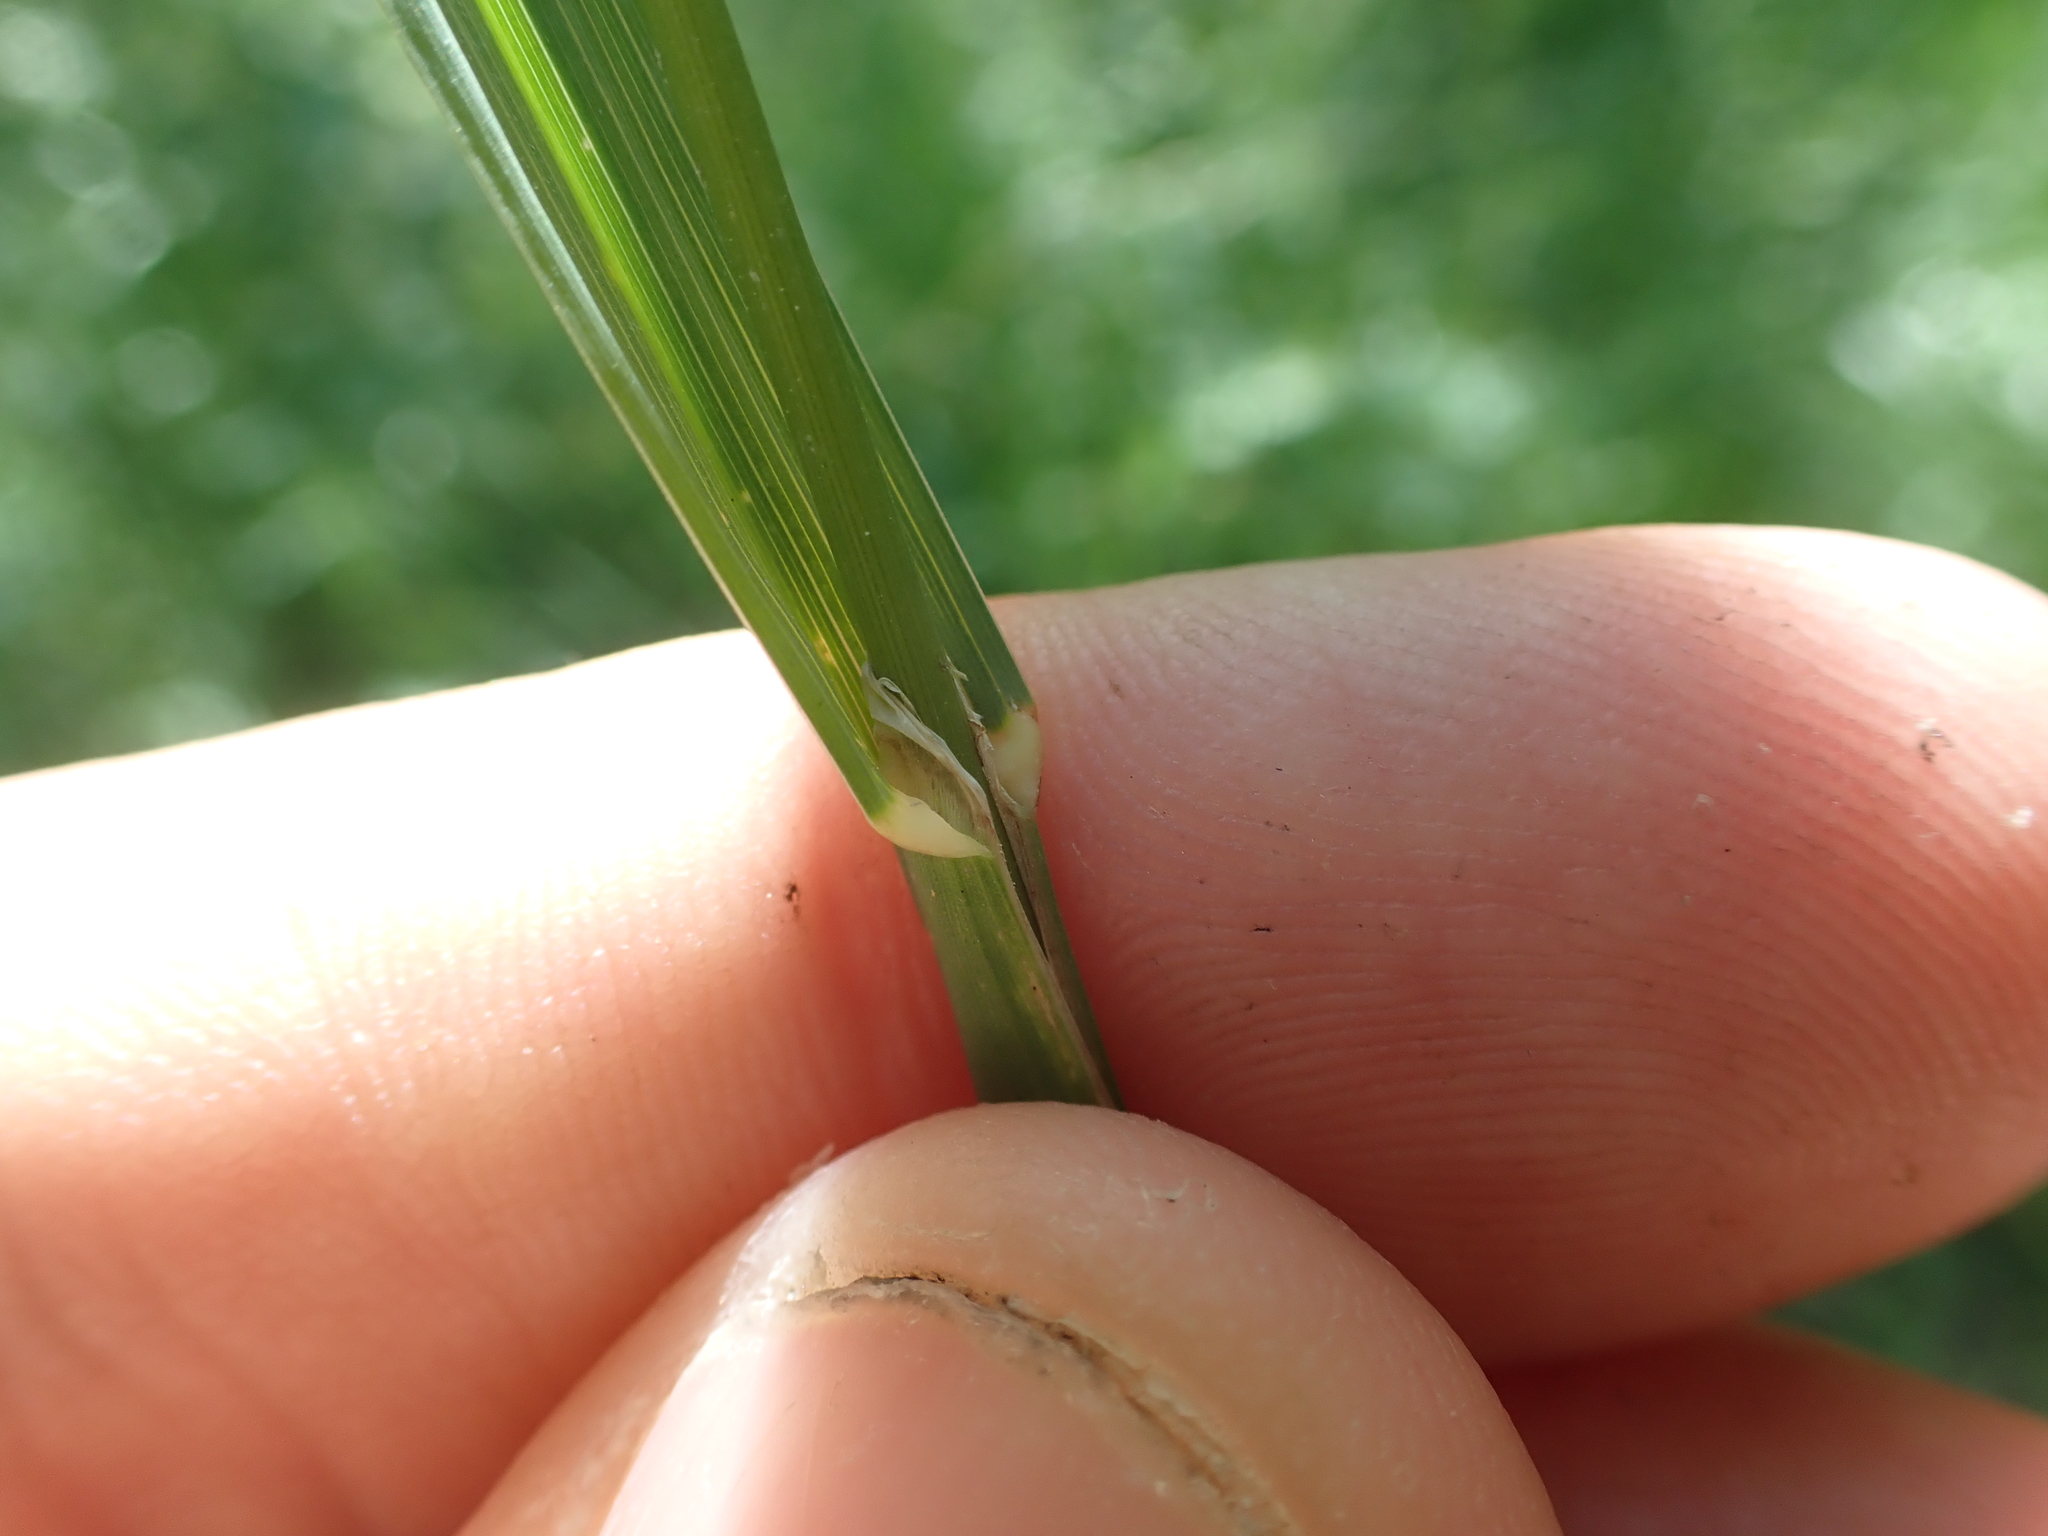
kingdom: Plantae
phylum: Tracheophyta
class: Liliopsida
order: Poales
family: Poaceae
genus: Dactylis
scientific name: Dactylis glomerata
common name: Orchardgrass
